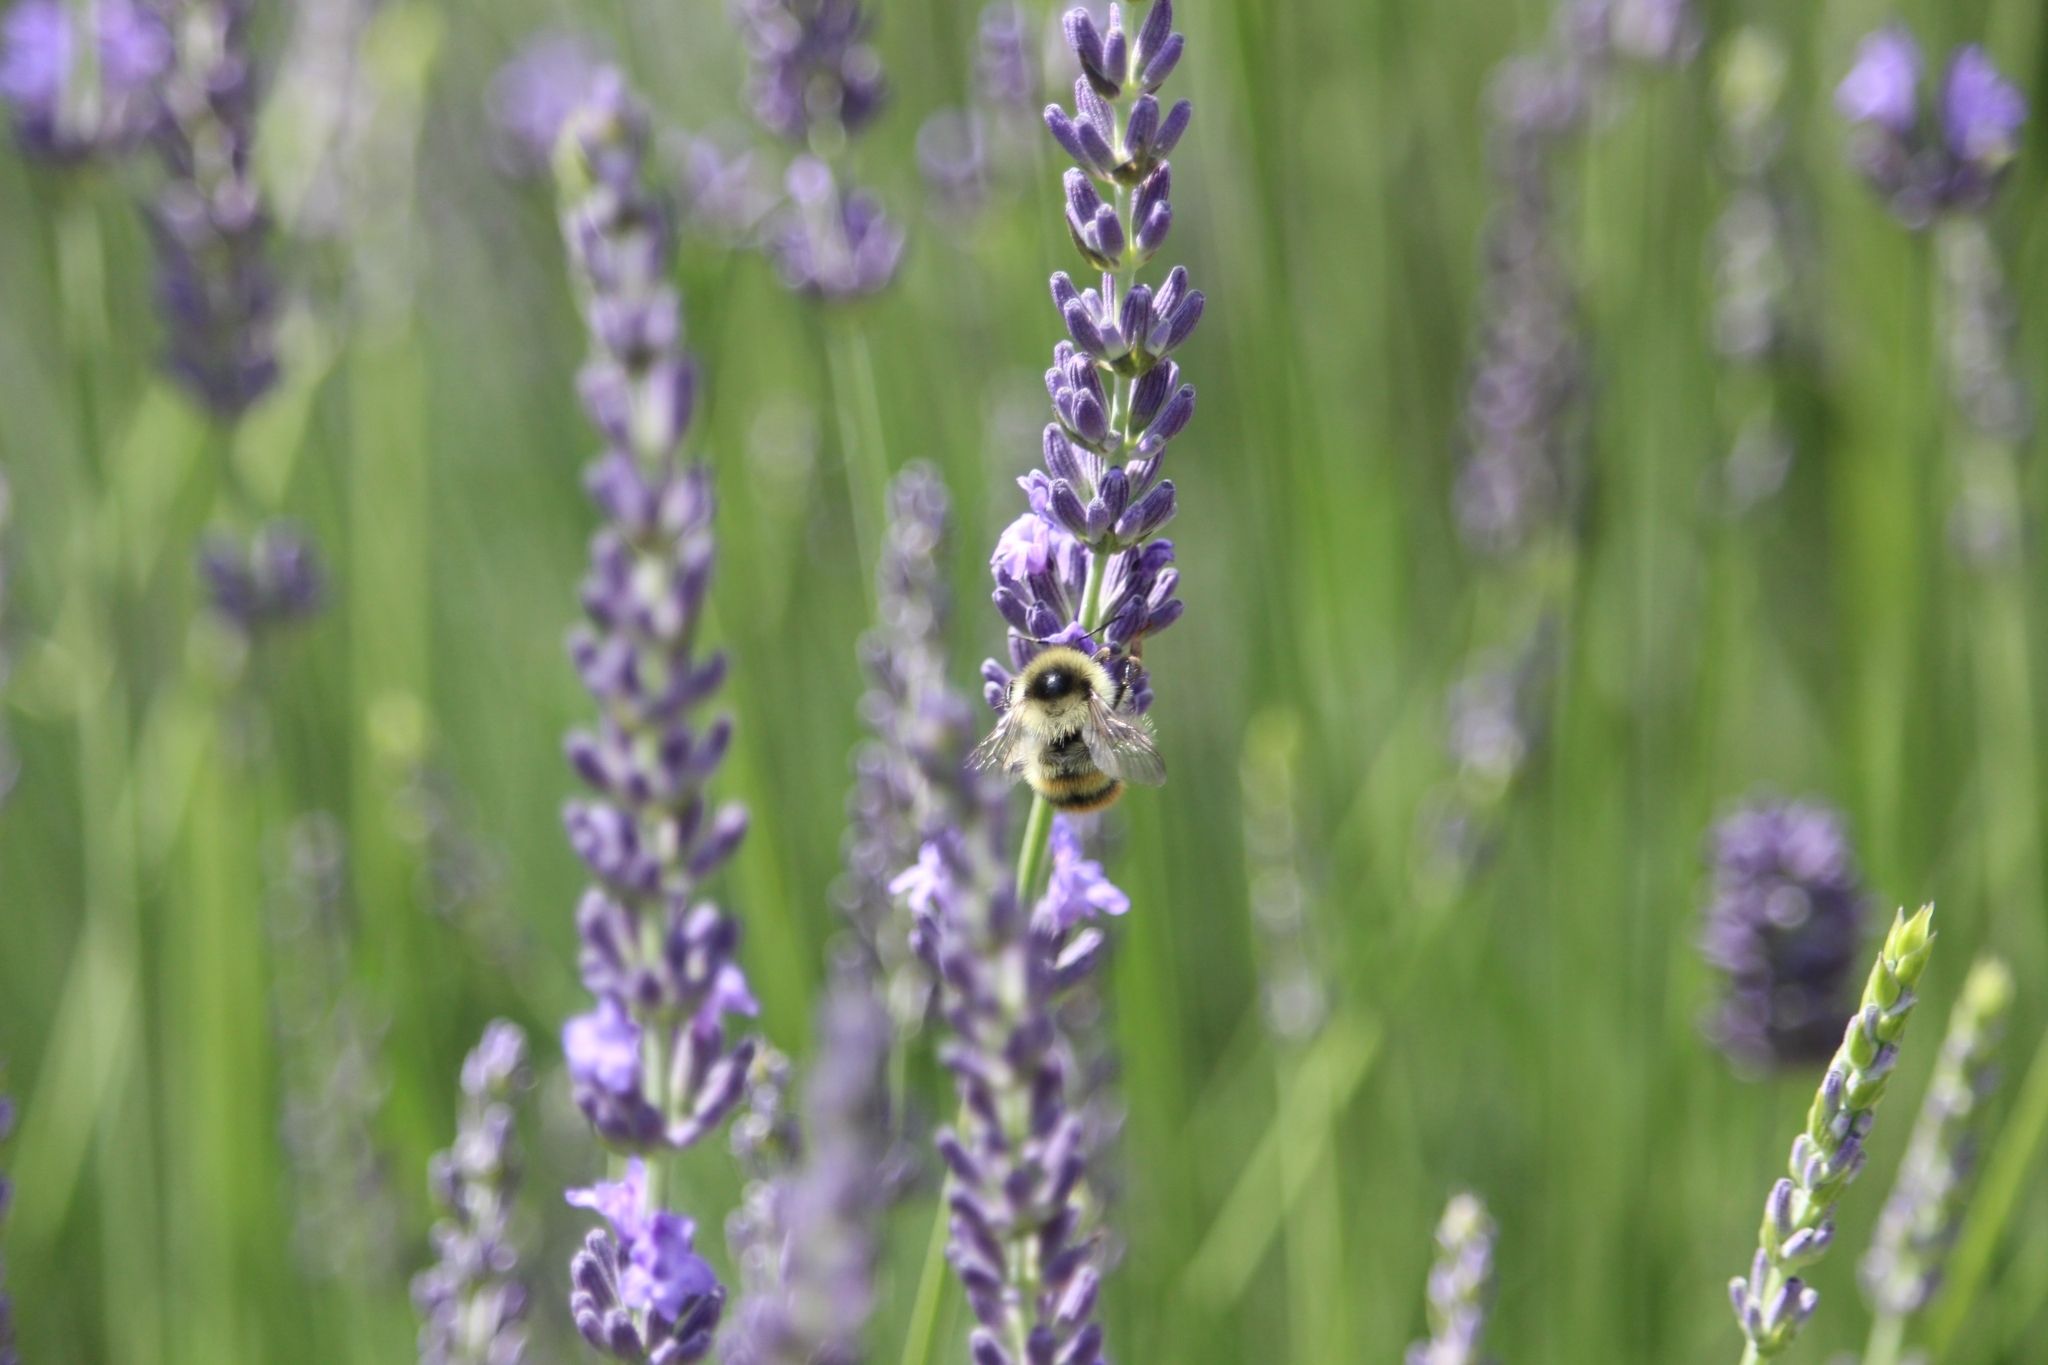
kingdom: Animalia
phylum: Arthropoda
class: Insecta
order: Hymenoptera
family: Apidae
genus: Bombus
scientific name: Bombus sylvarum
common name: Shrill carder bee
